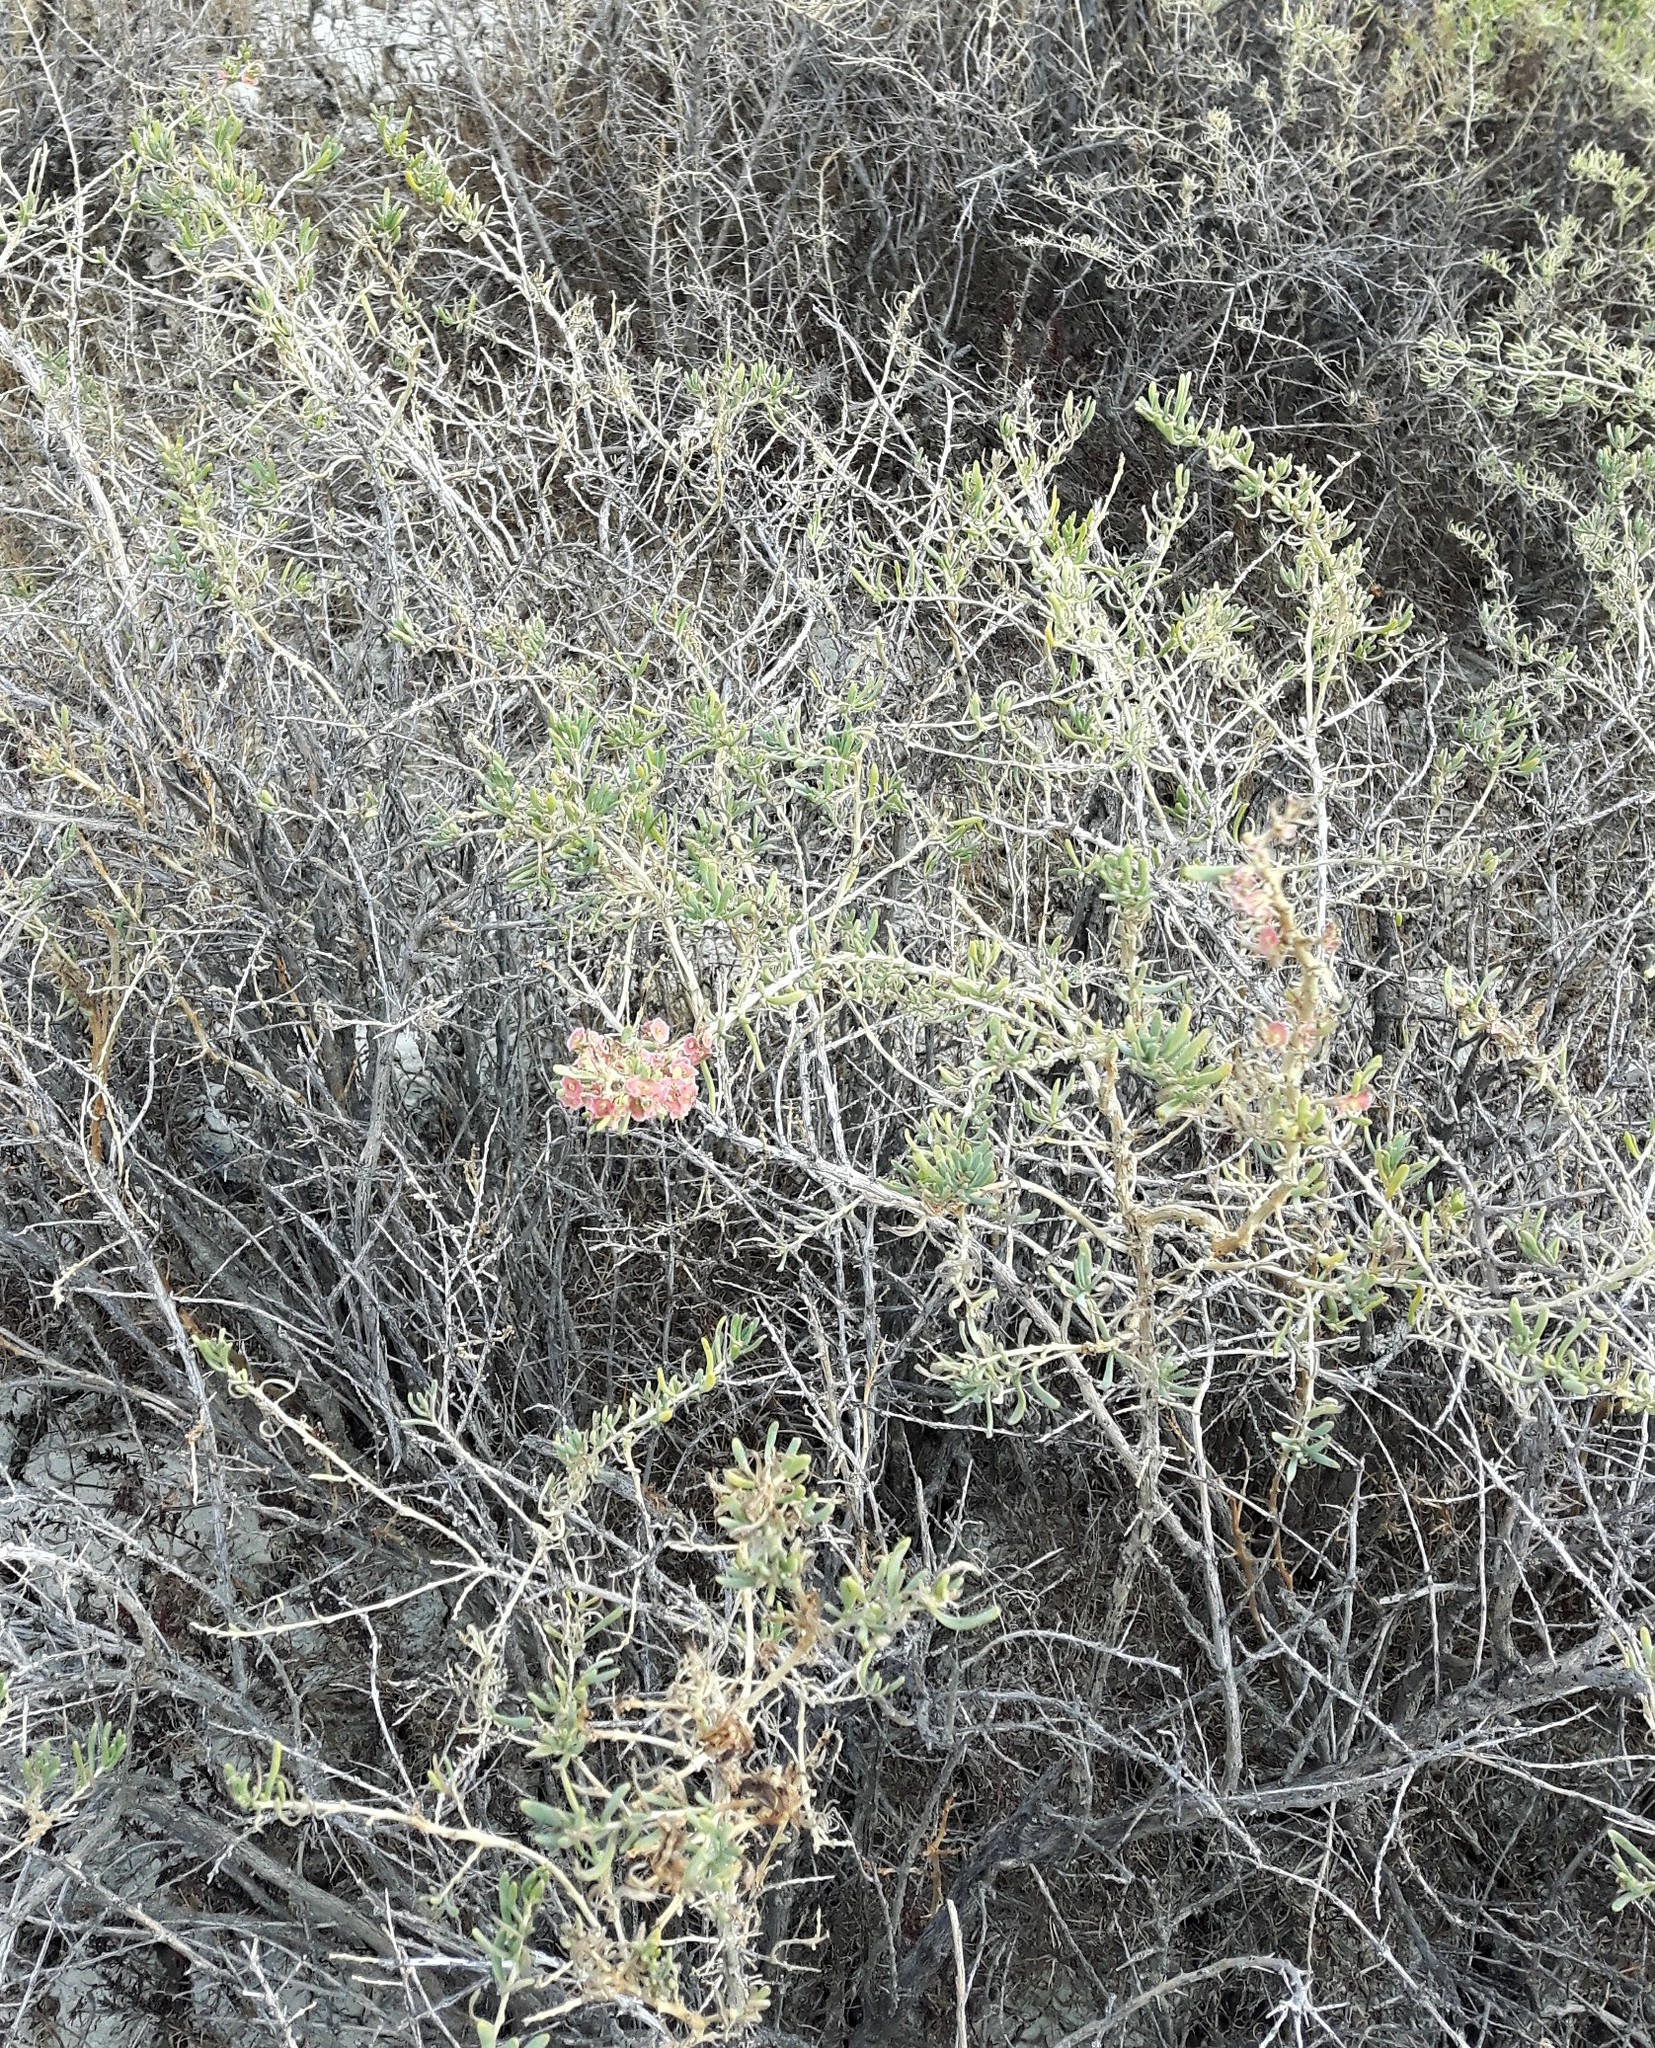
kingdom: Plantae
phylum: Tracheophyta
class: Magnoliopsida
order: Caryophyllales
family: Sarcobataceae
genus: Sarcobatus
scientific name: Sarcobatus vermiculatus
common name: Greasewood
